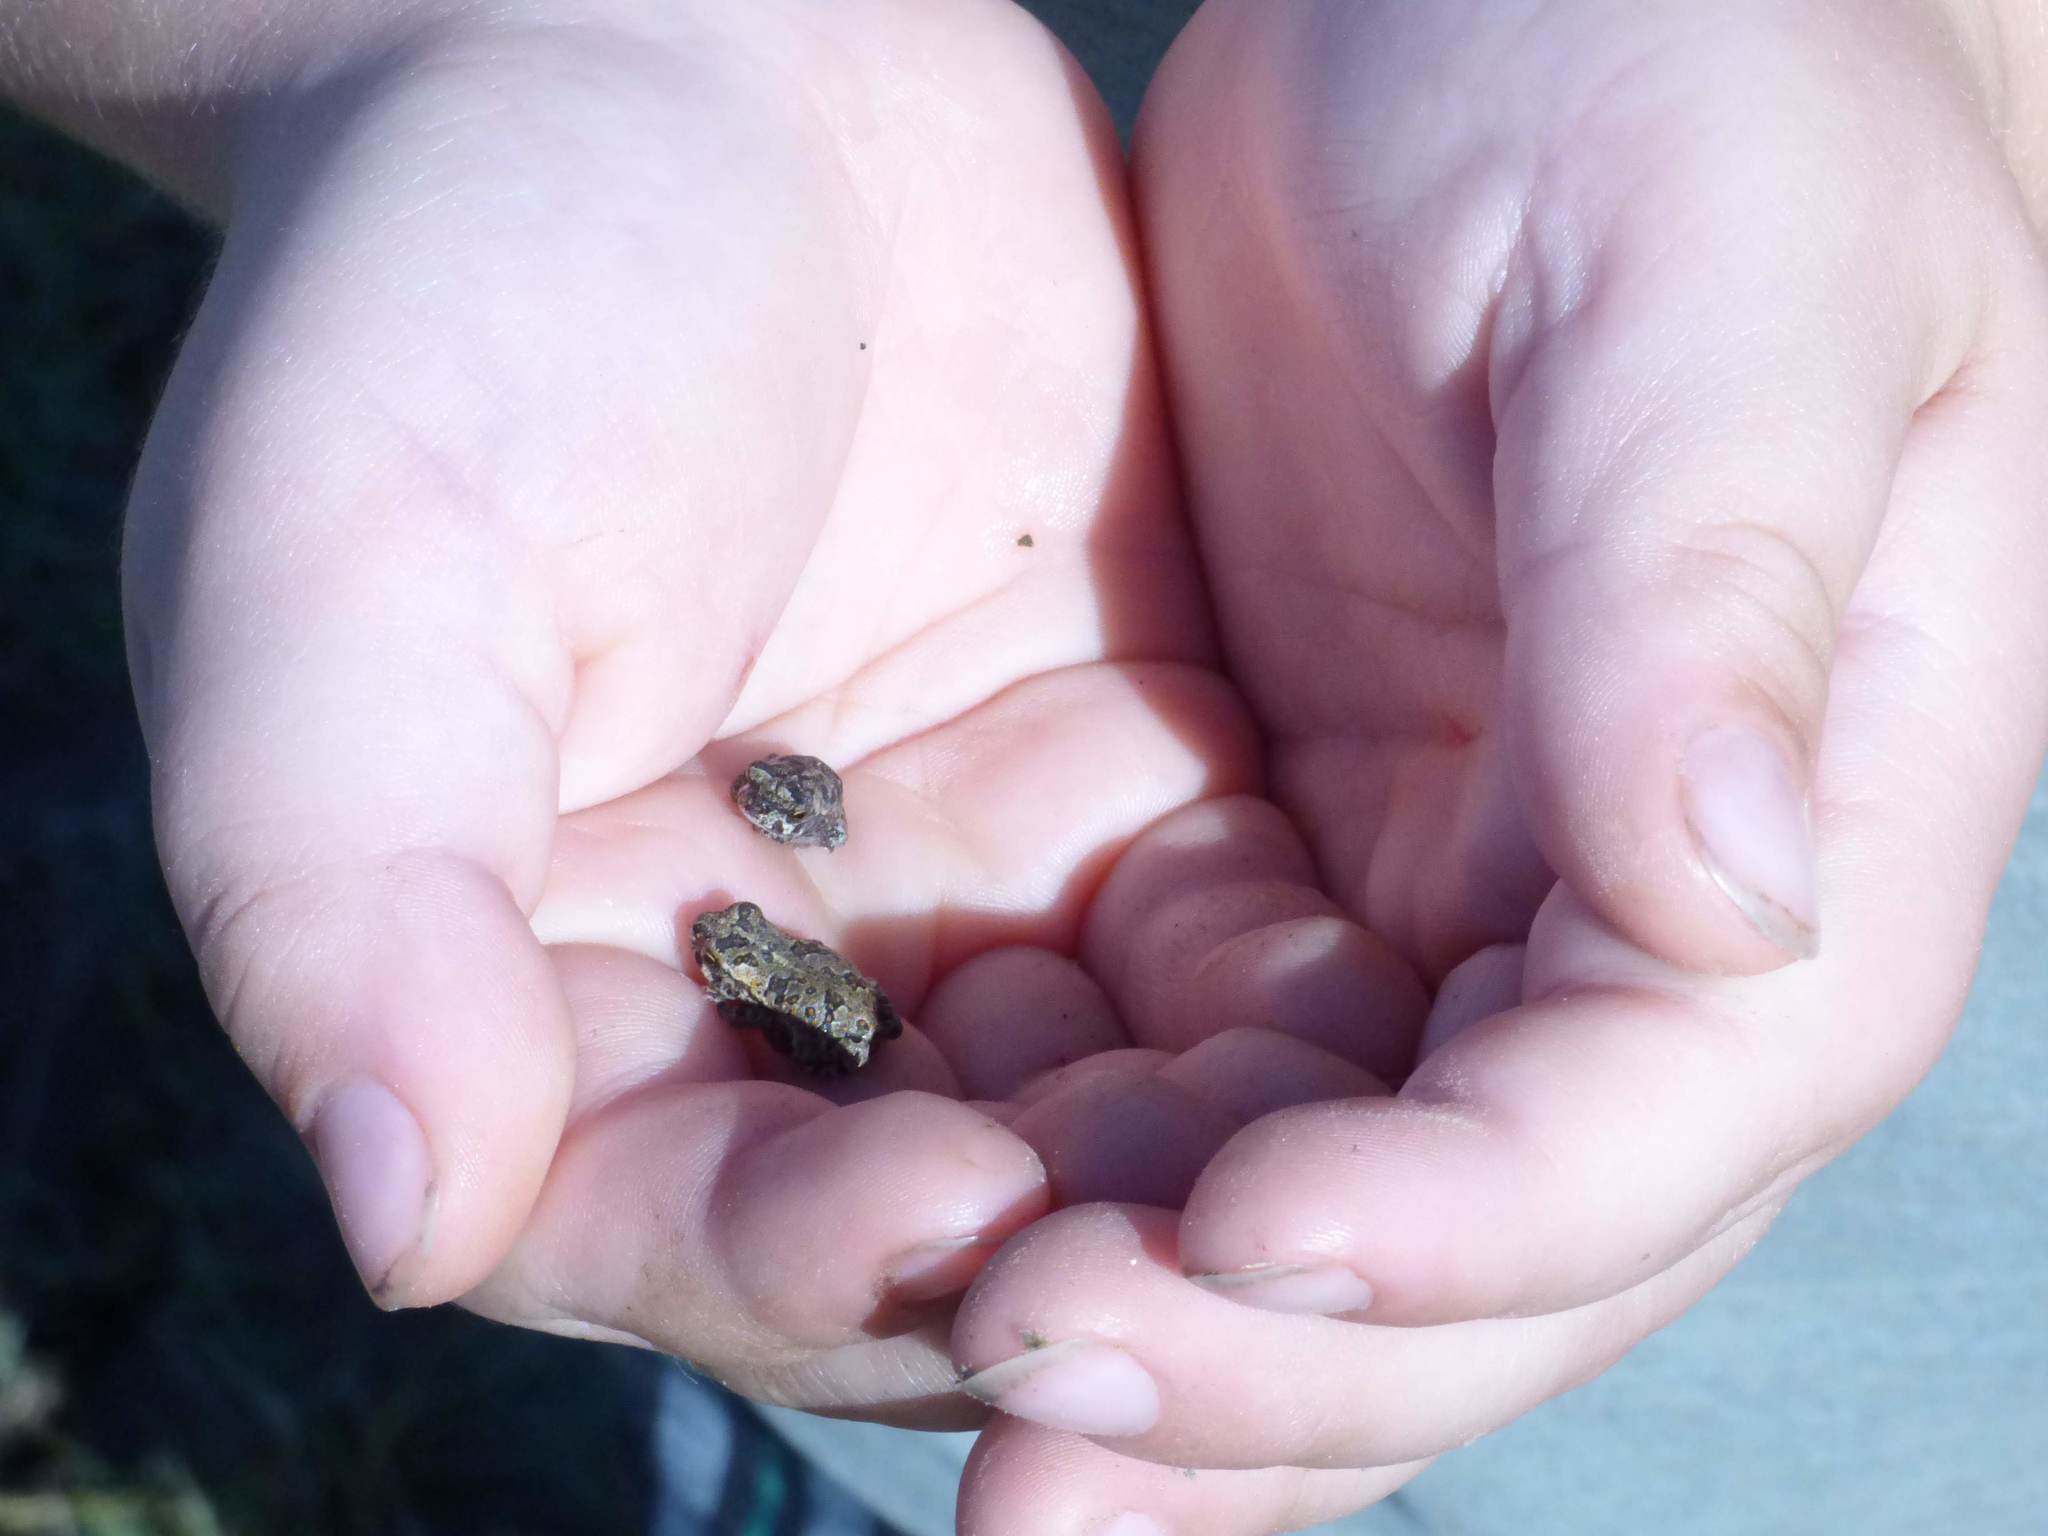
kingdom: Animalia
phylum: Chordata
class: Amphibia
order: Anura
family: Bufonidae
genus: Rhinella
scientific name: Rhinella arenarum
